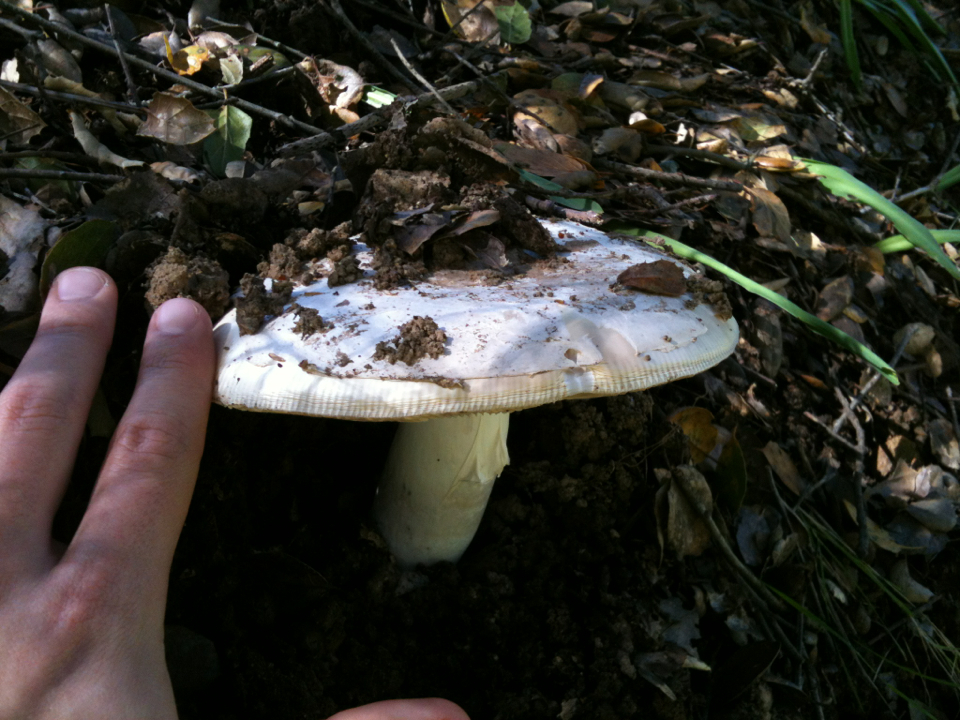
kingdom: Fungi
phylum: Basidiomycota
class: Agaricomycetes
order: Agaricales
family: Amanitaceae
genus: Amanita
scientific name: Amanita velosa
